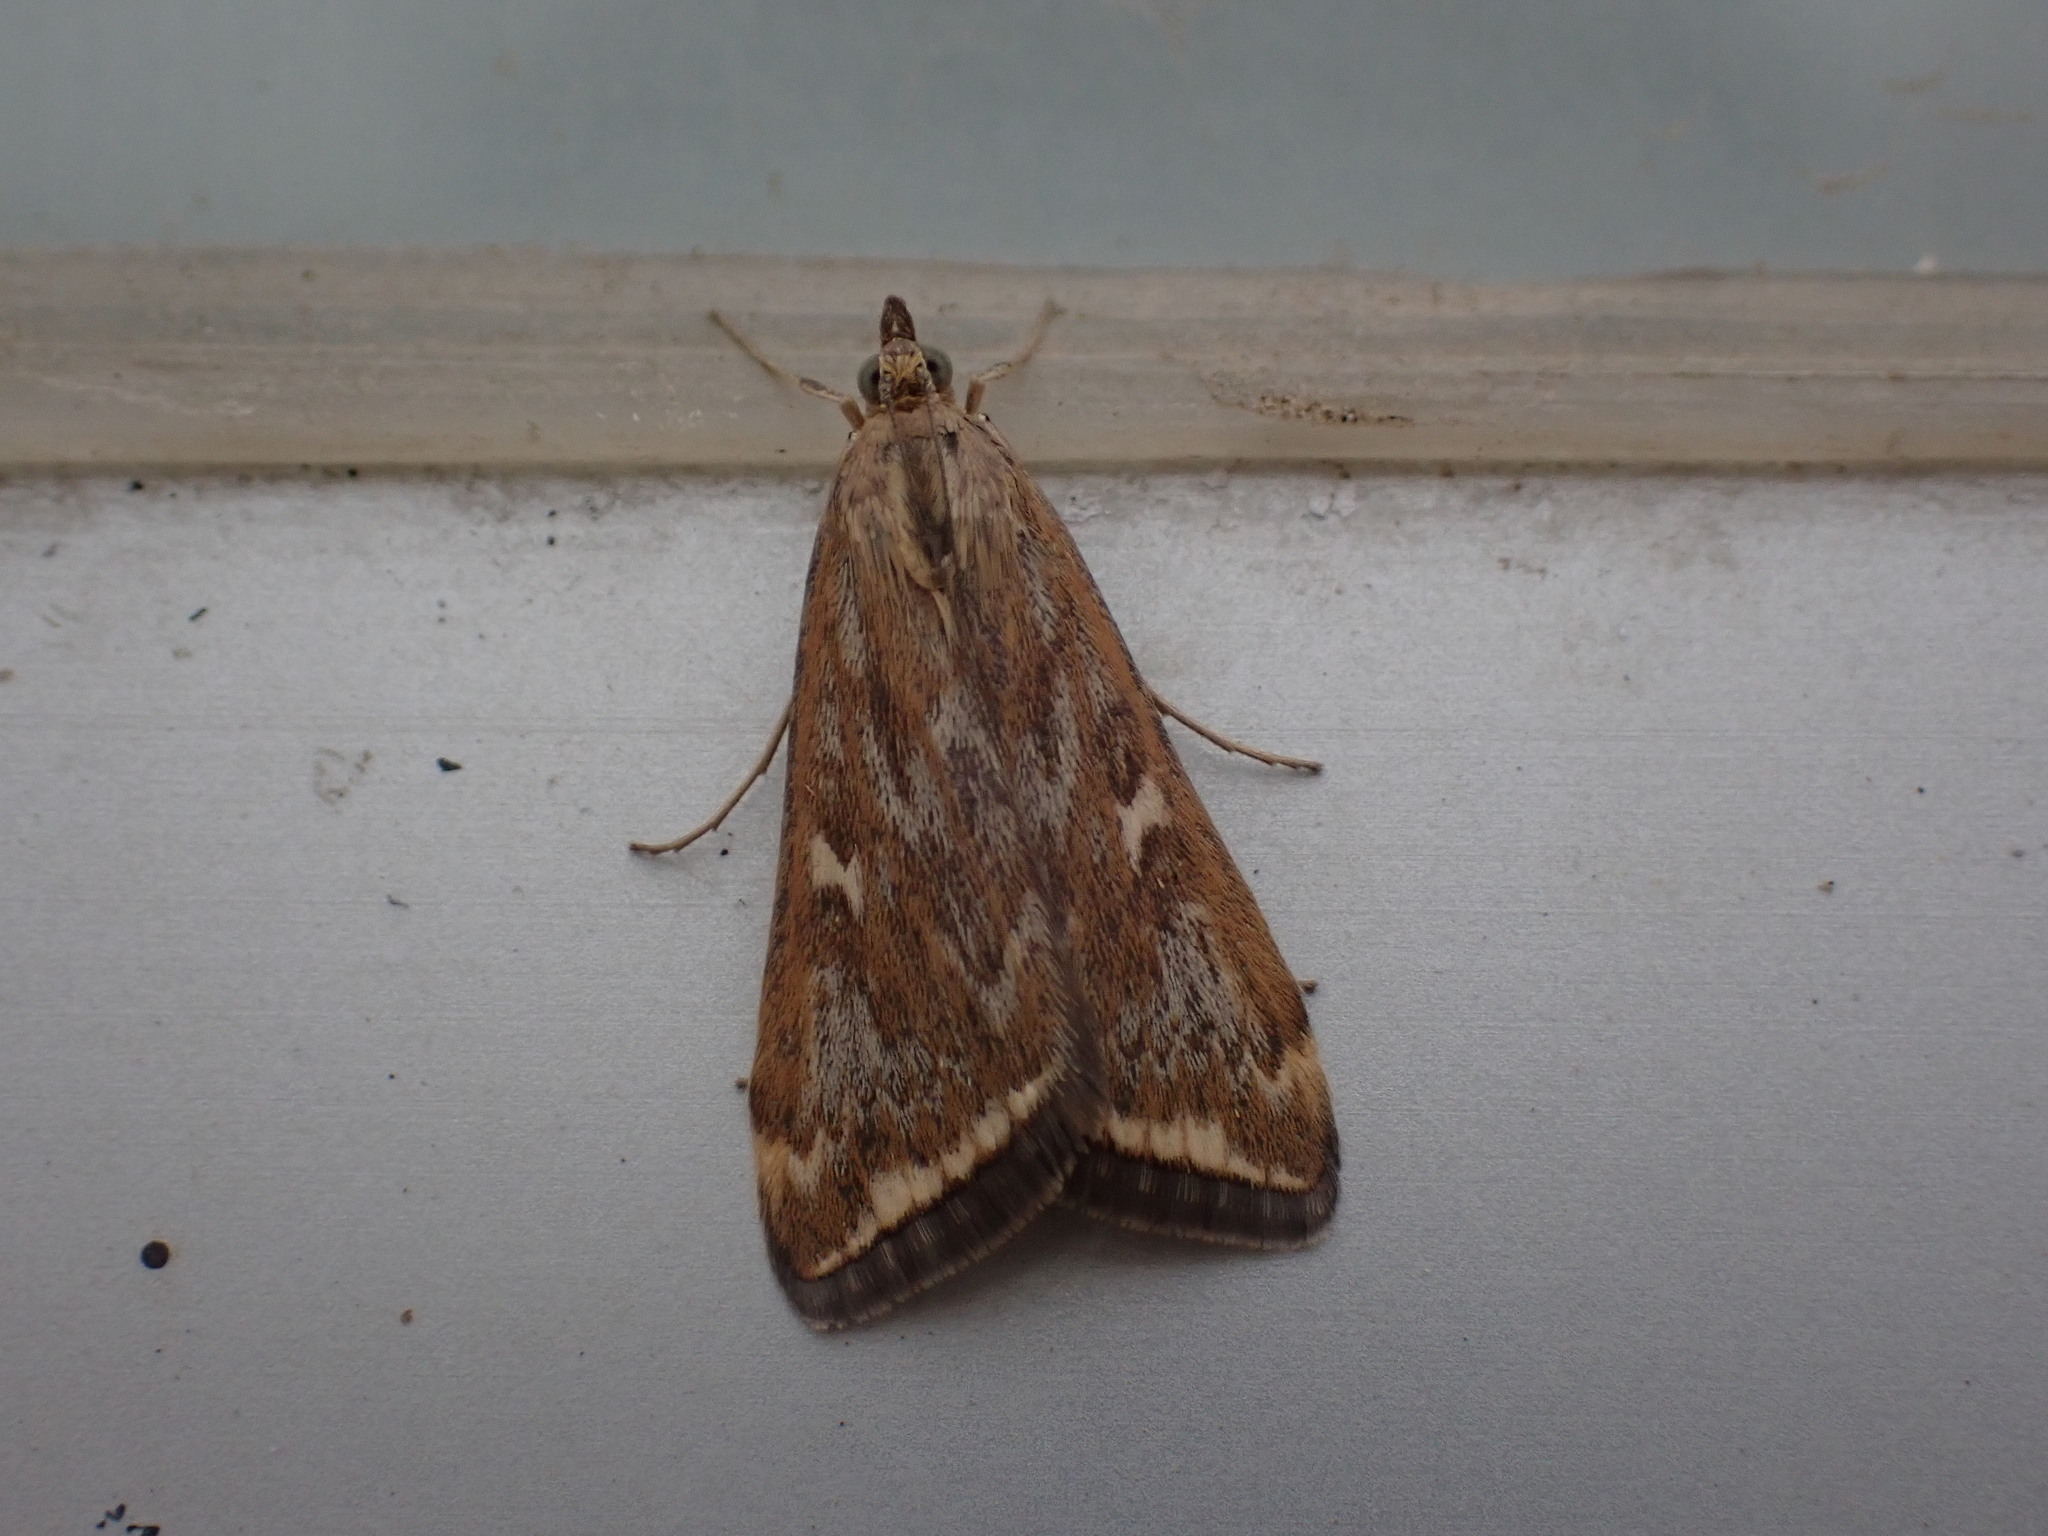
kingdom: Animalia
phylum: Arthropoda
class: Insecta
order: Lepidoptera
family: Crambidae
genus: Loxostege
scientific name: Loxostege
